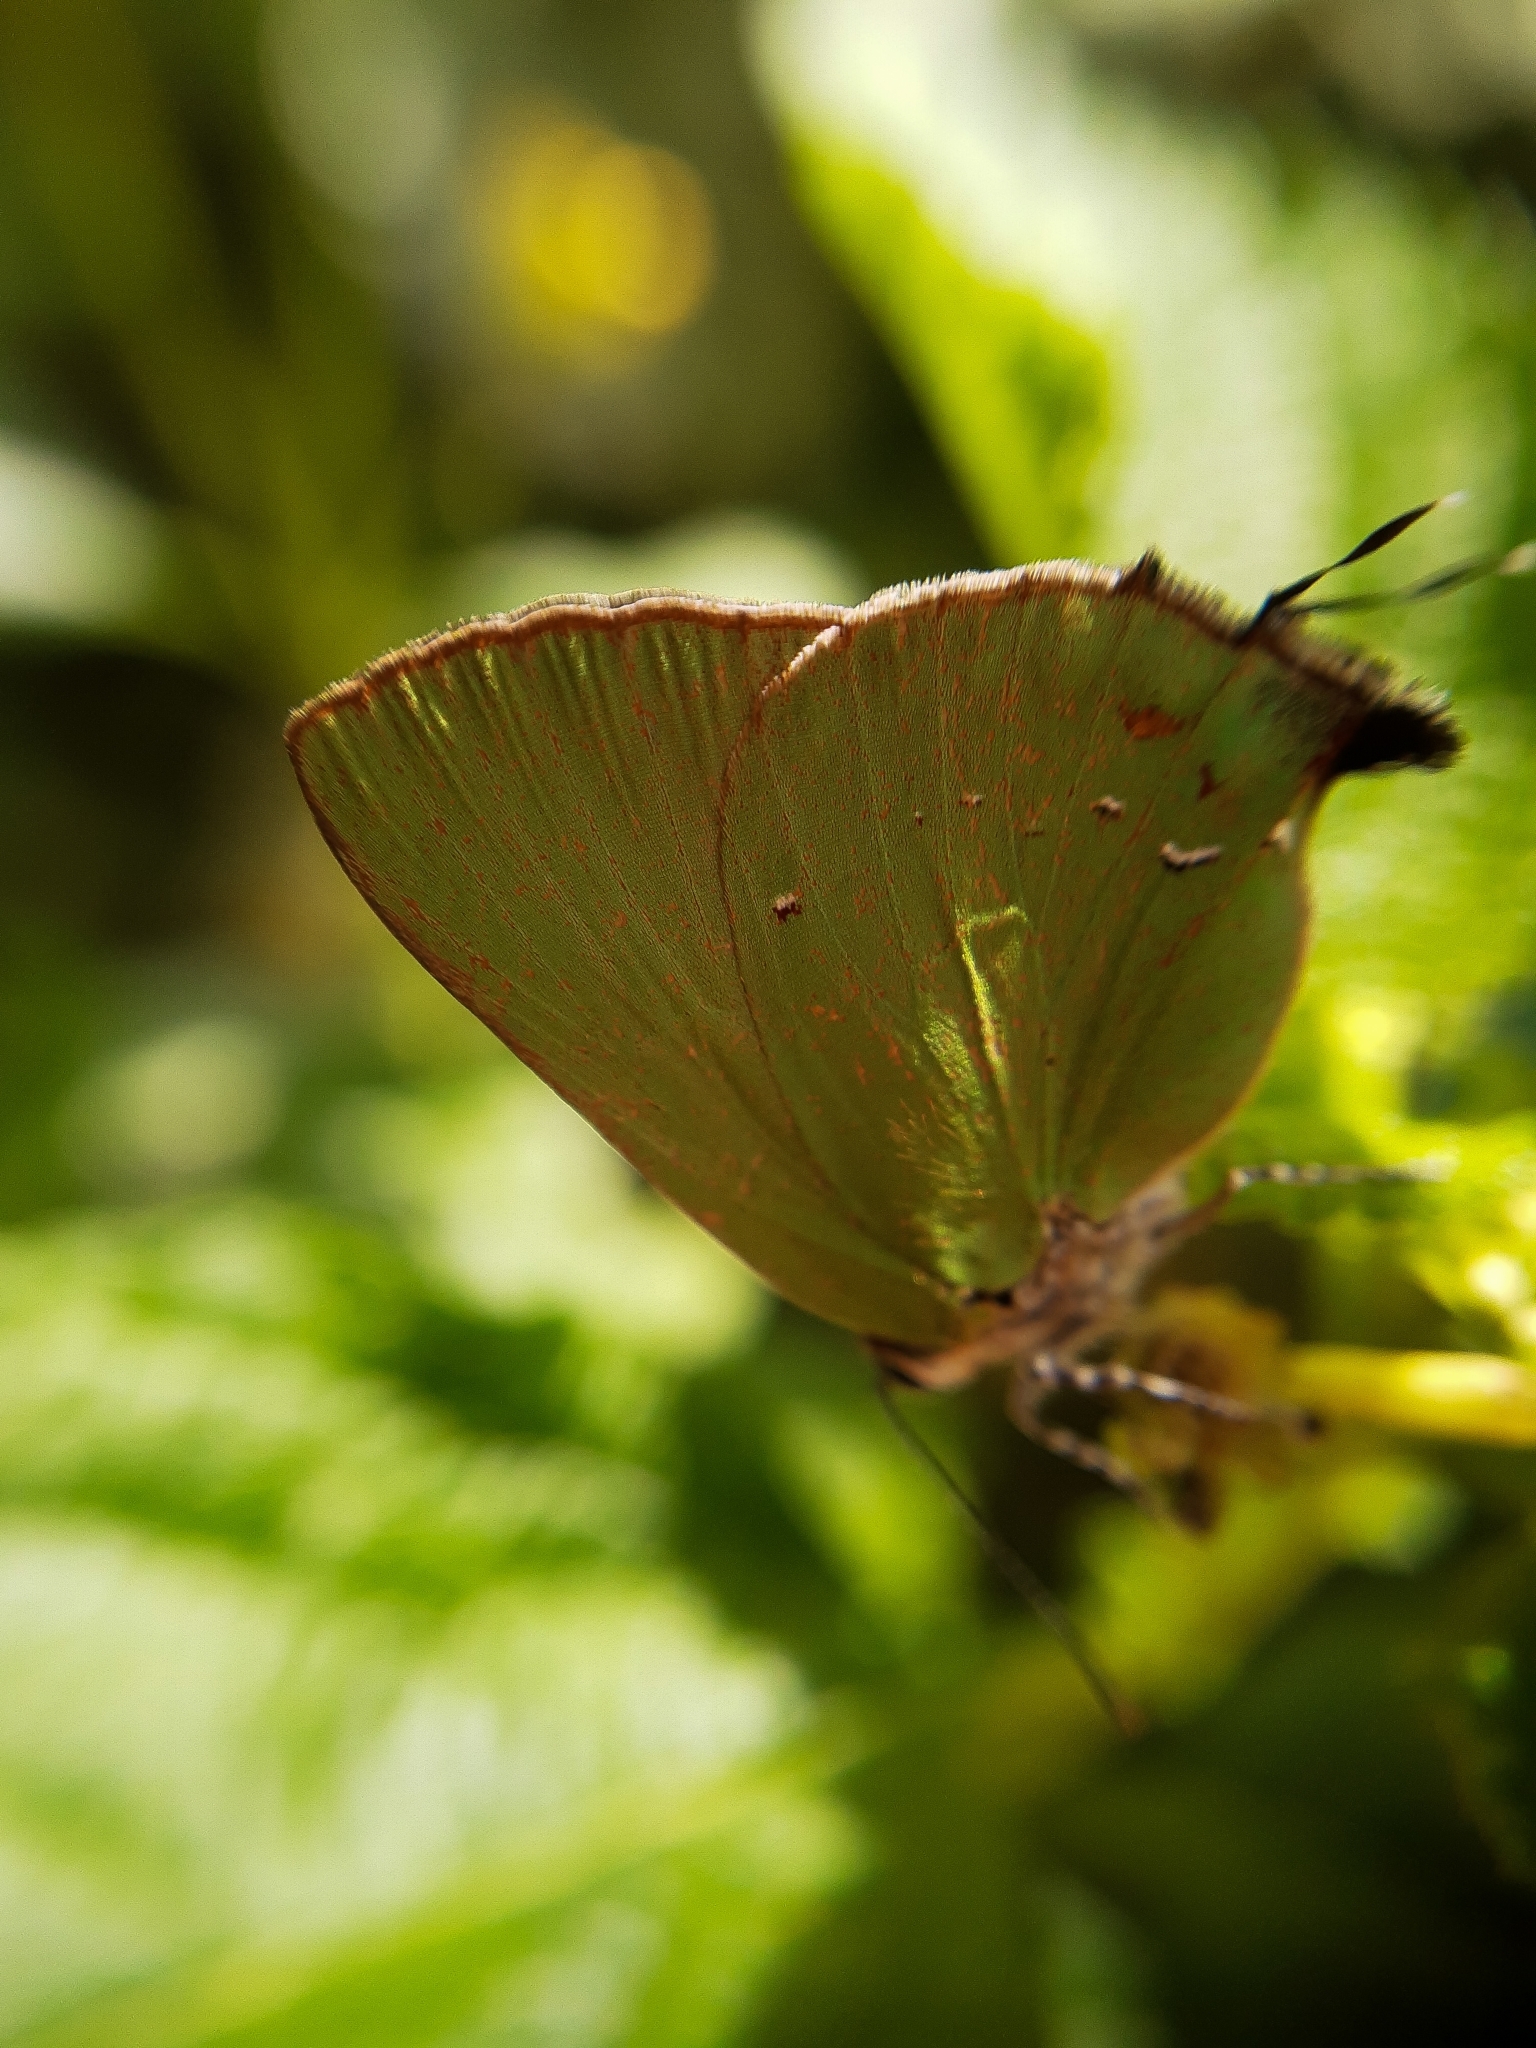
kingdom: Animalia
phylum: Arthropoda
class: Insecta
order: Lepidoptera
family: Lycaenidae
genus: Thecla
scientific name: Thecla herodotus
